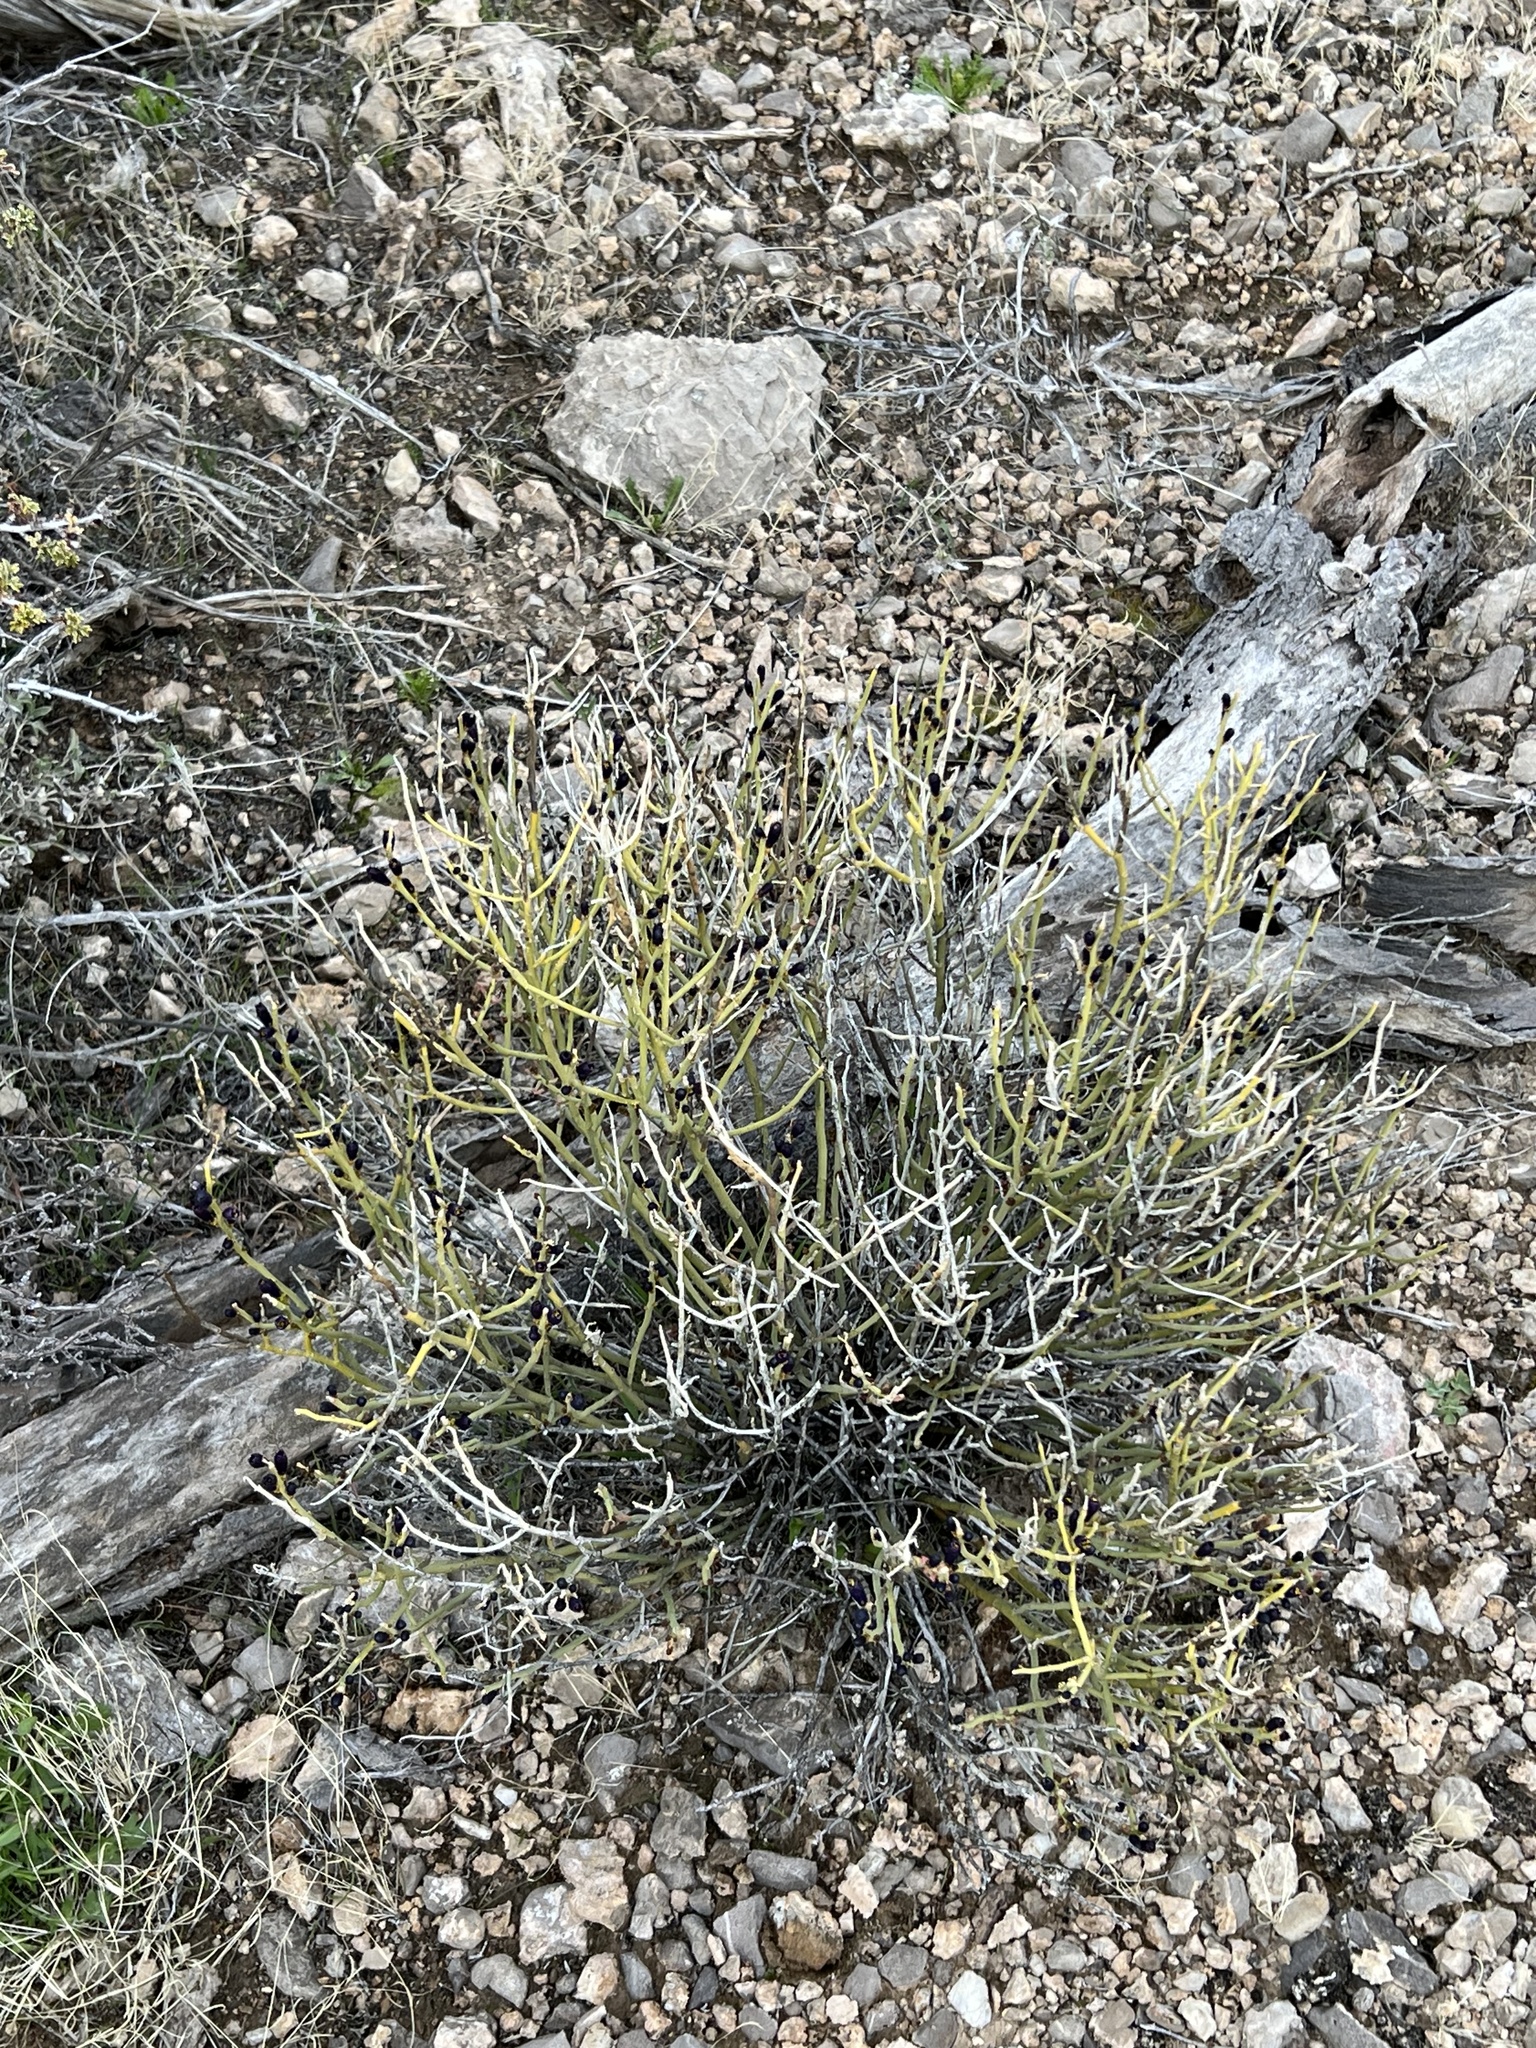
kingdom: Plantae
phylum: Tracheophyta
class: Magnoliopsida
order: Sapindales
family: Rutaceae
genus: Thamnosma
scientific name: Thamnosma montana
